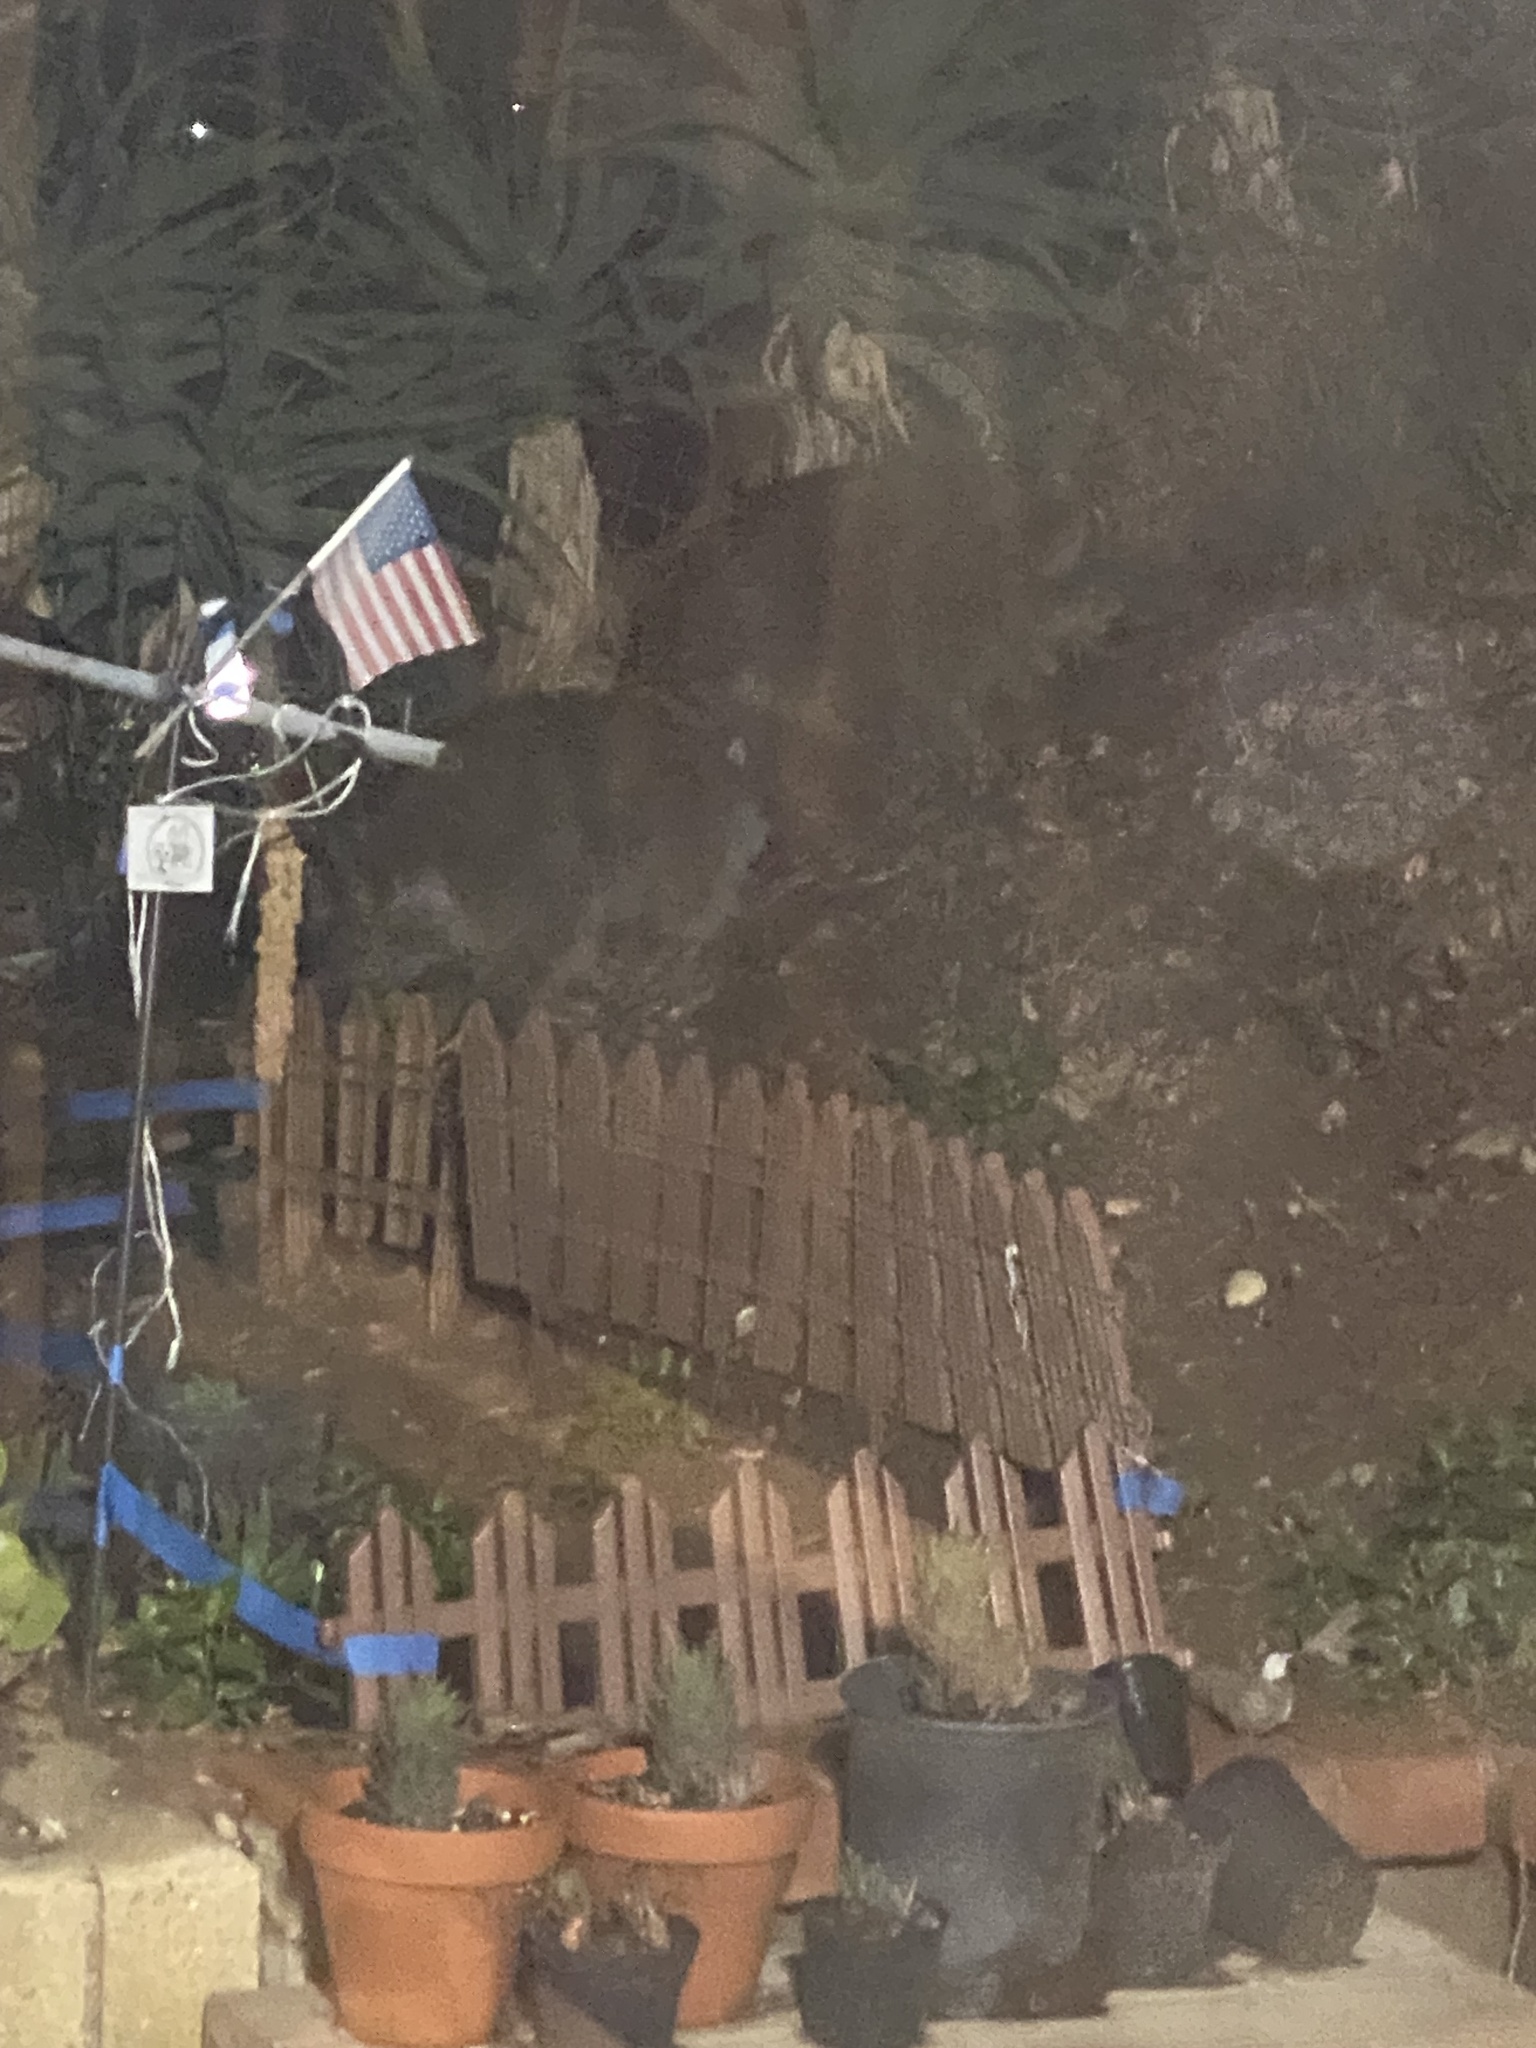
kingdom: Animalia
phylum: Chordata
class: Mammalia
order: Carnivora
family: Procyonidae
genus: Procyon
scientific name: Procyon lotor
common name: Raccoon
